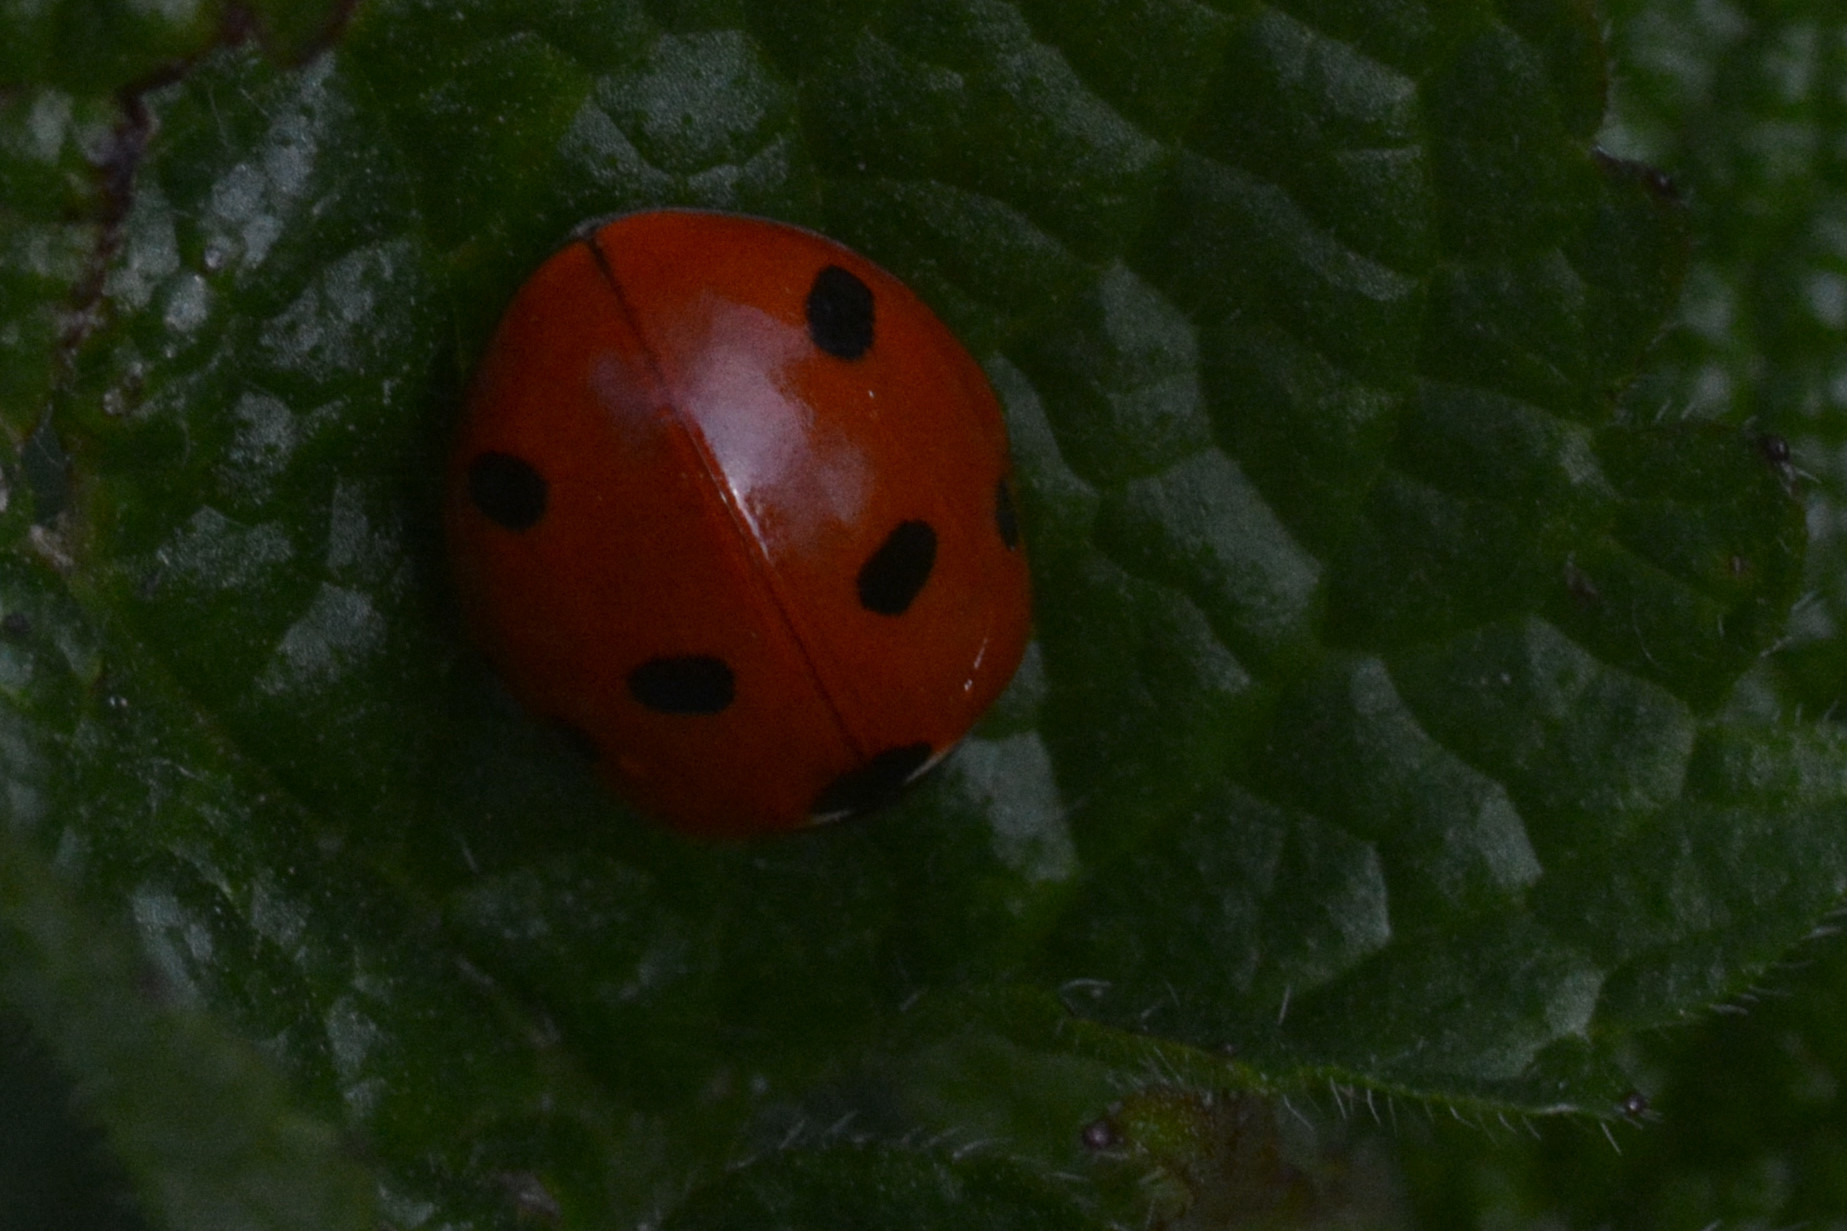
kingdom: Animalia
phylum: Arthropoda
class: Insecta
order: Coleoptera
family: Coccinellidae
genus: Coccinella
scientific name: Coccinella septempunctata
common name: Sevenspotted lady beetle
